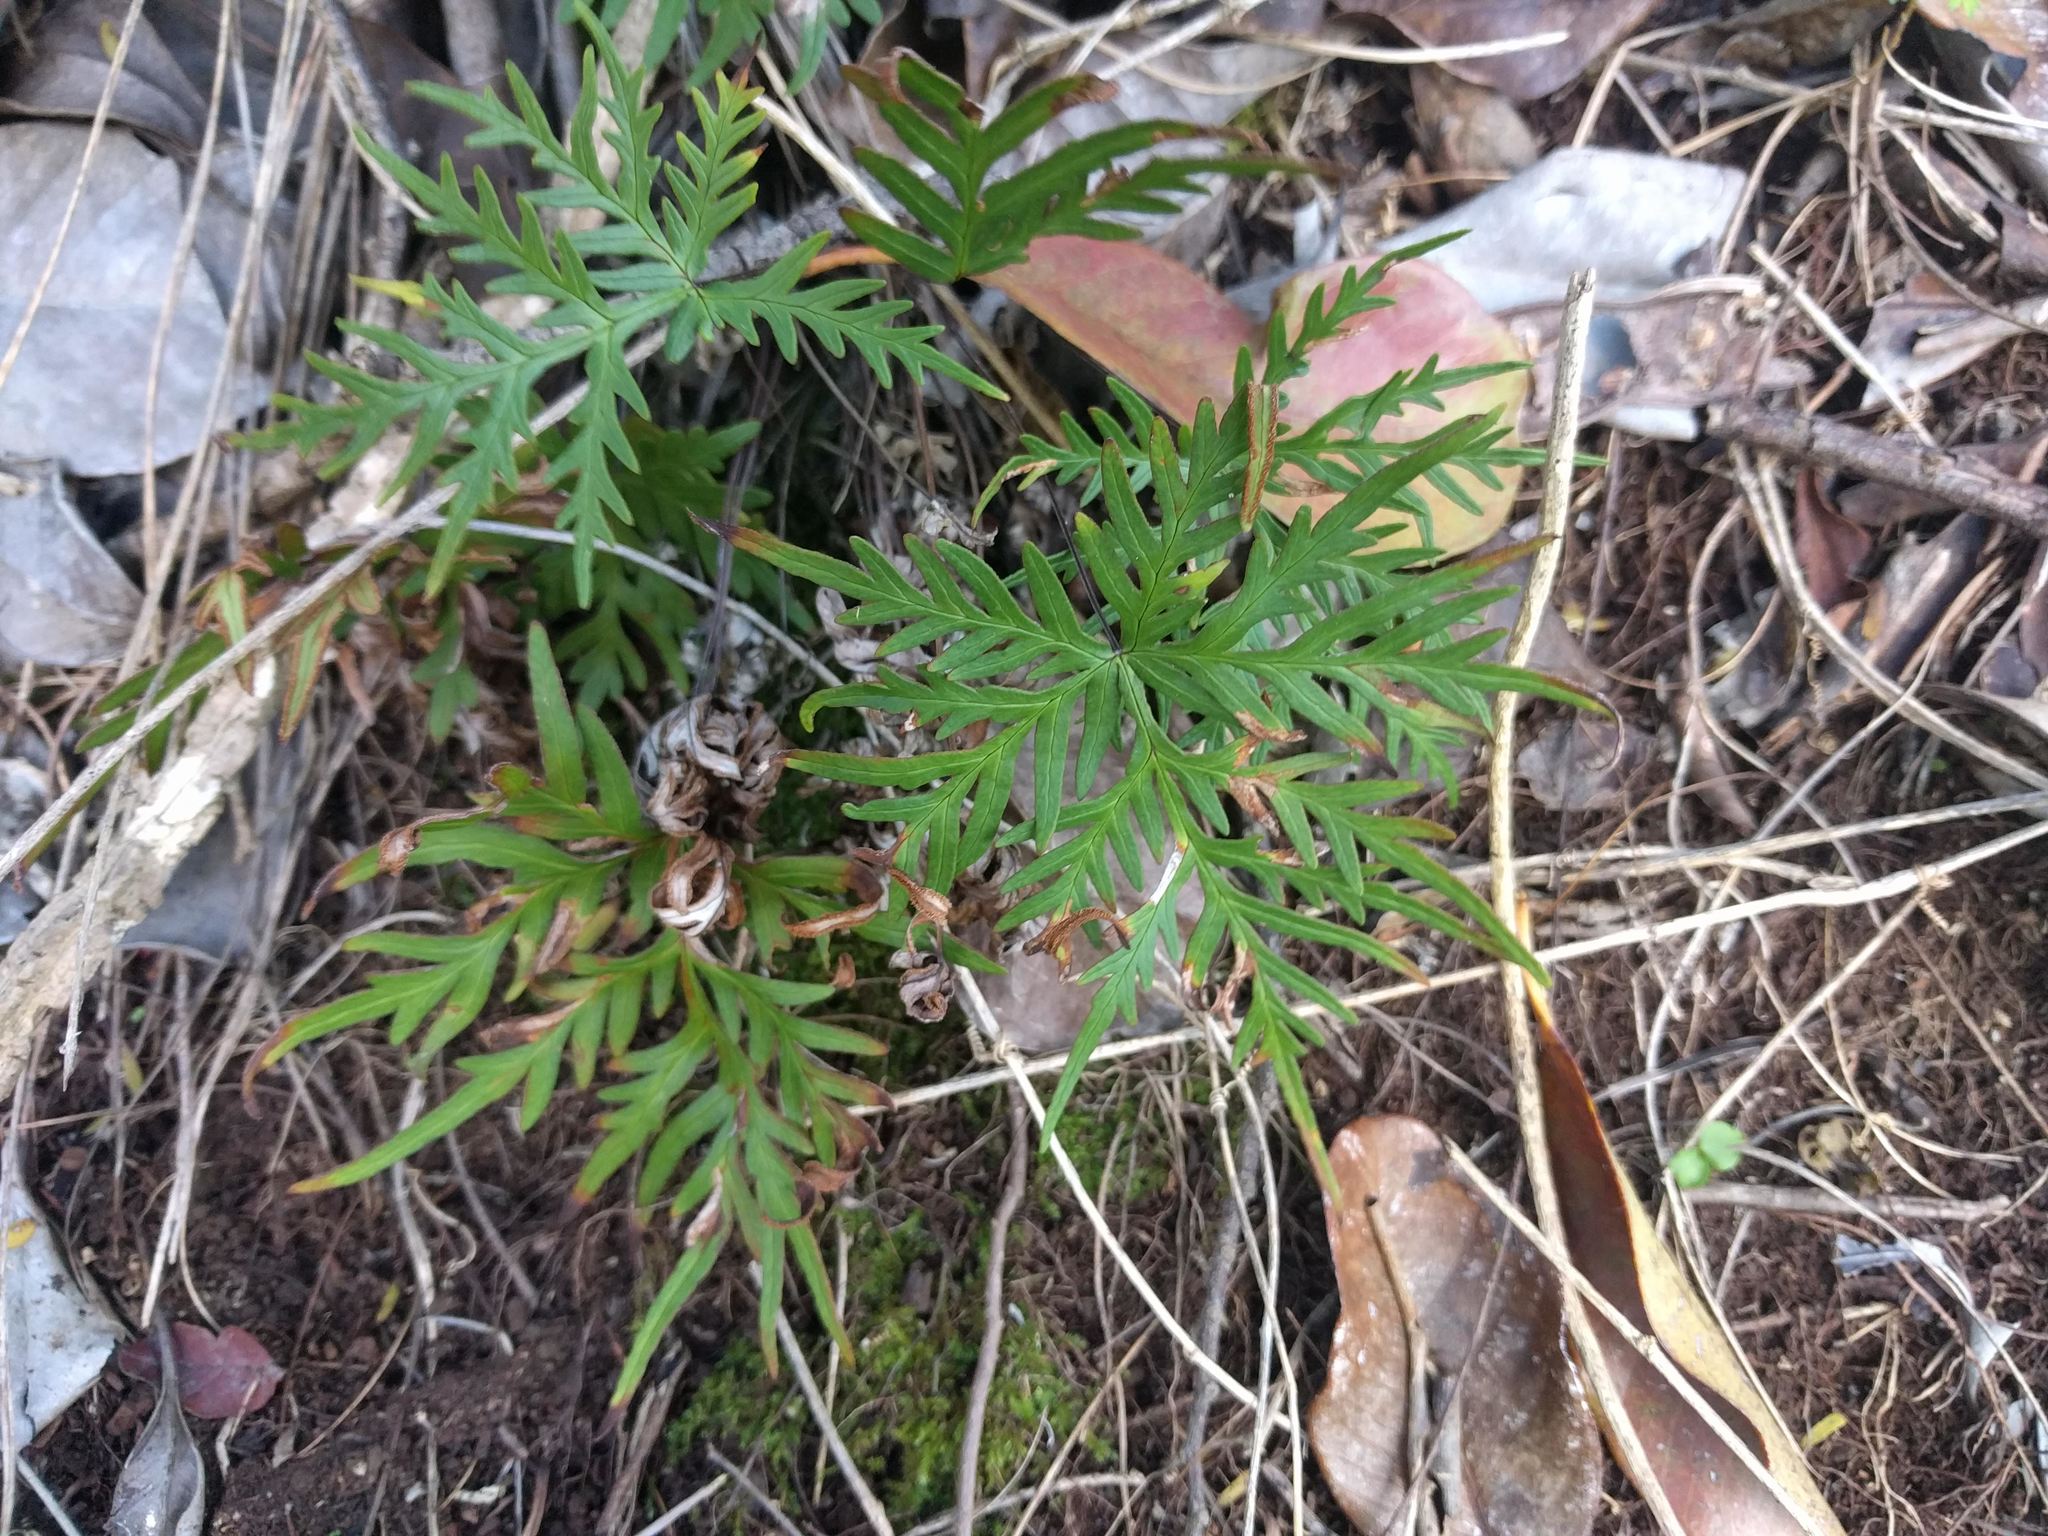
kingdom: Plantae
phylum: Tracheophyta
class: Polypodiopsida
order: Polypodiales
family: Pteridaceae
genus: Doryopteris
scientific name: Doryopteris decipiens
